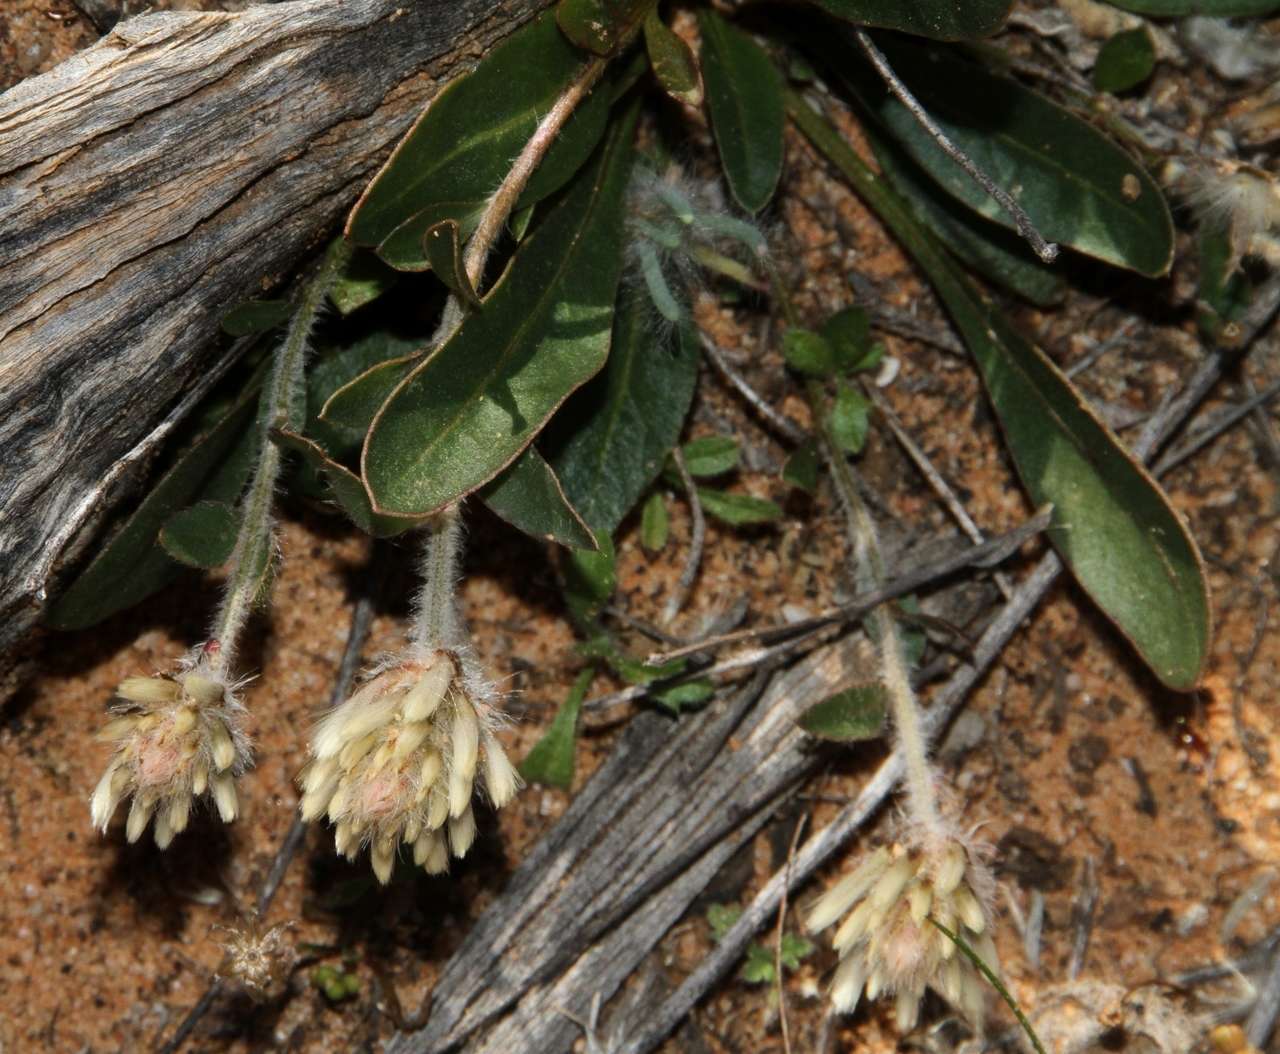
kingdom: Plantae
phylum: Tracheophyta
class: Magnoliopsida
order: Caryophyllales
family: Amaranthaceae
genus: Ptilotus
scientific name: Ptilotus seminudus
